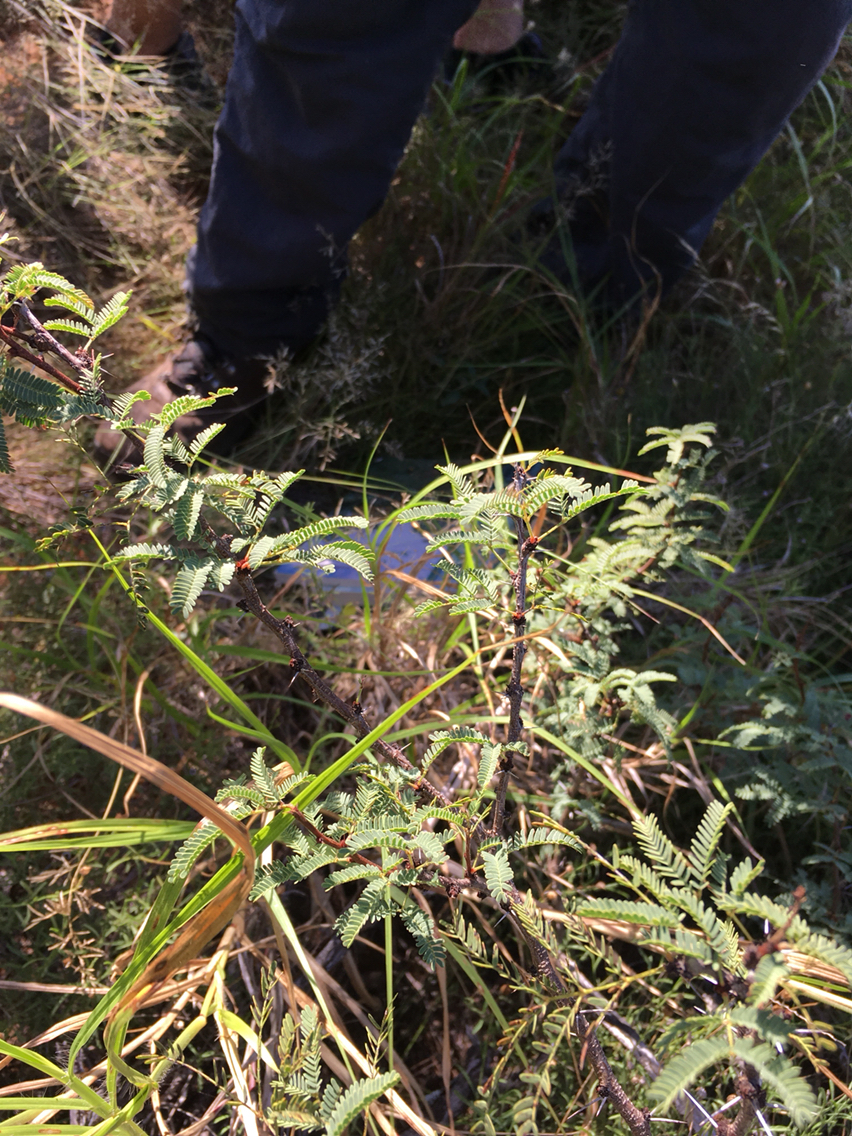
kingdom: Plantae
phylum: Tracheophyta
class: Magnoliopsida
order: Fabales
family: Fabaceae
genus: Vachellia
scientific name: Vachellia schaffneri
